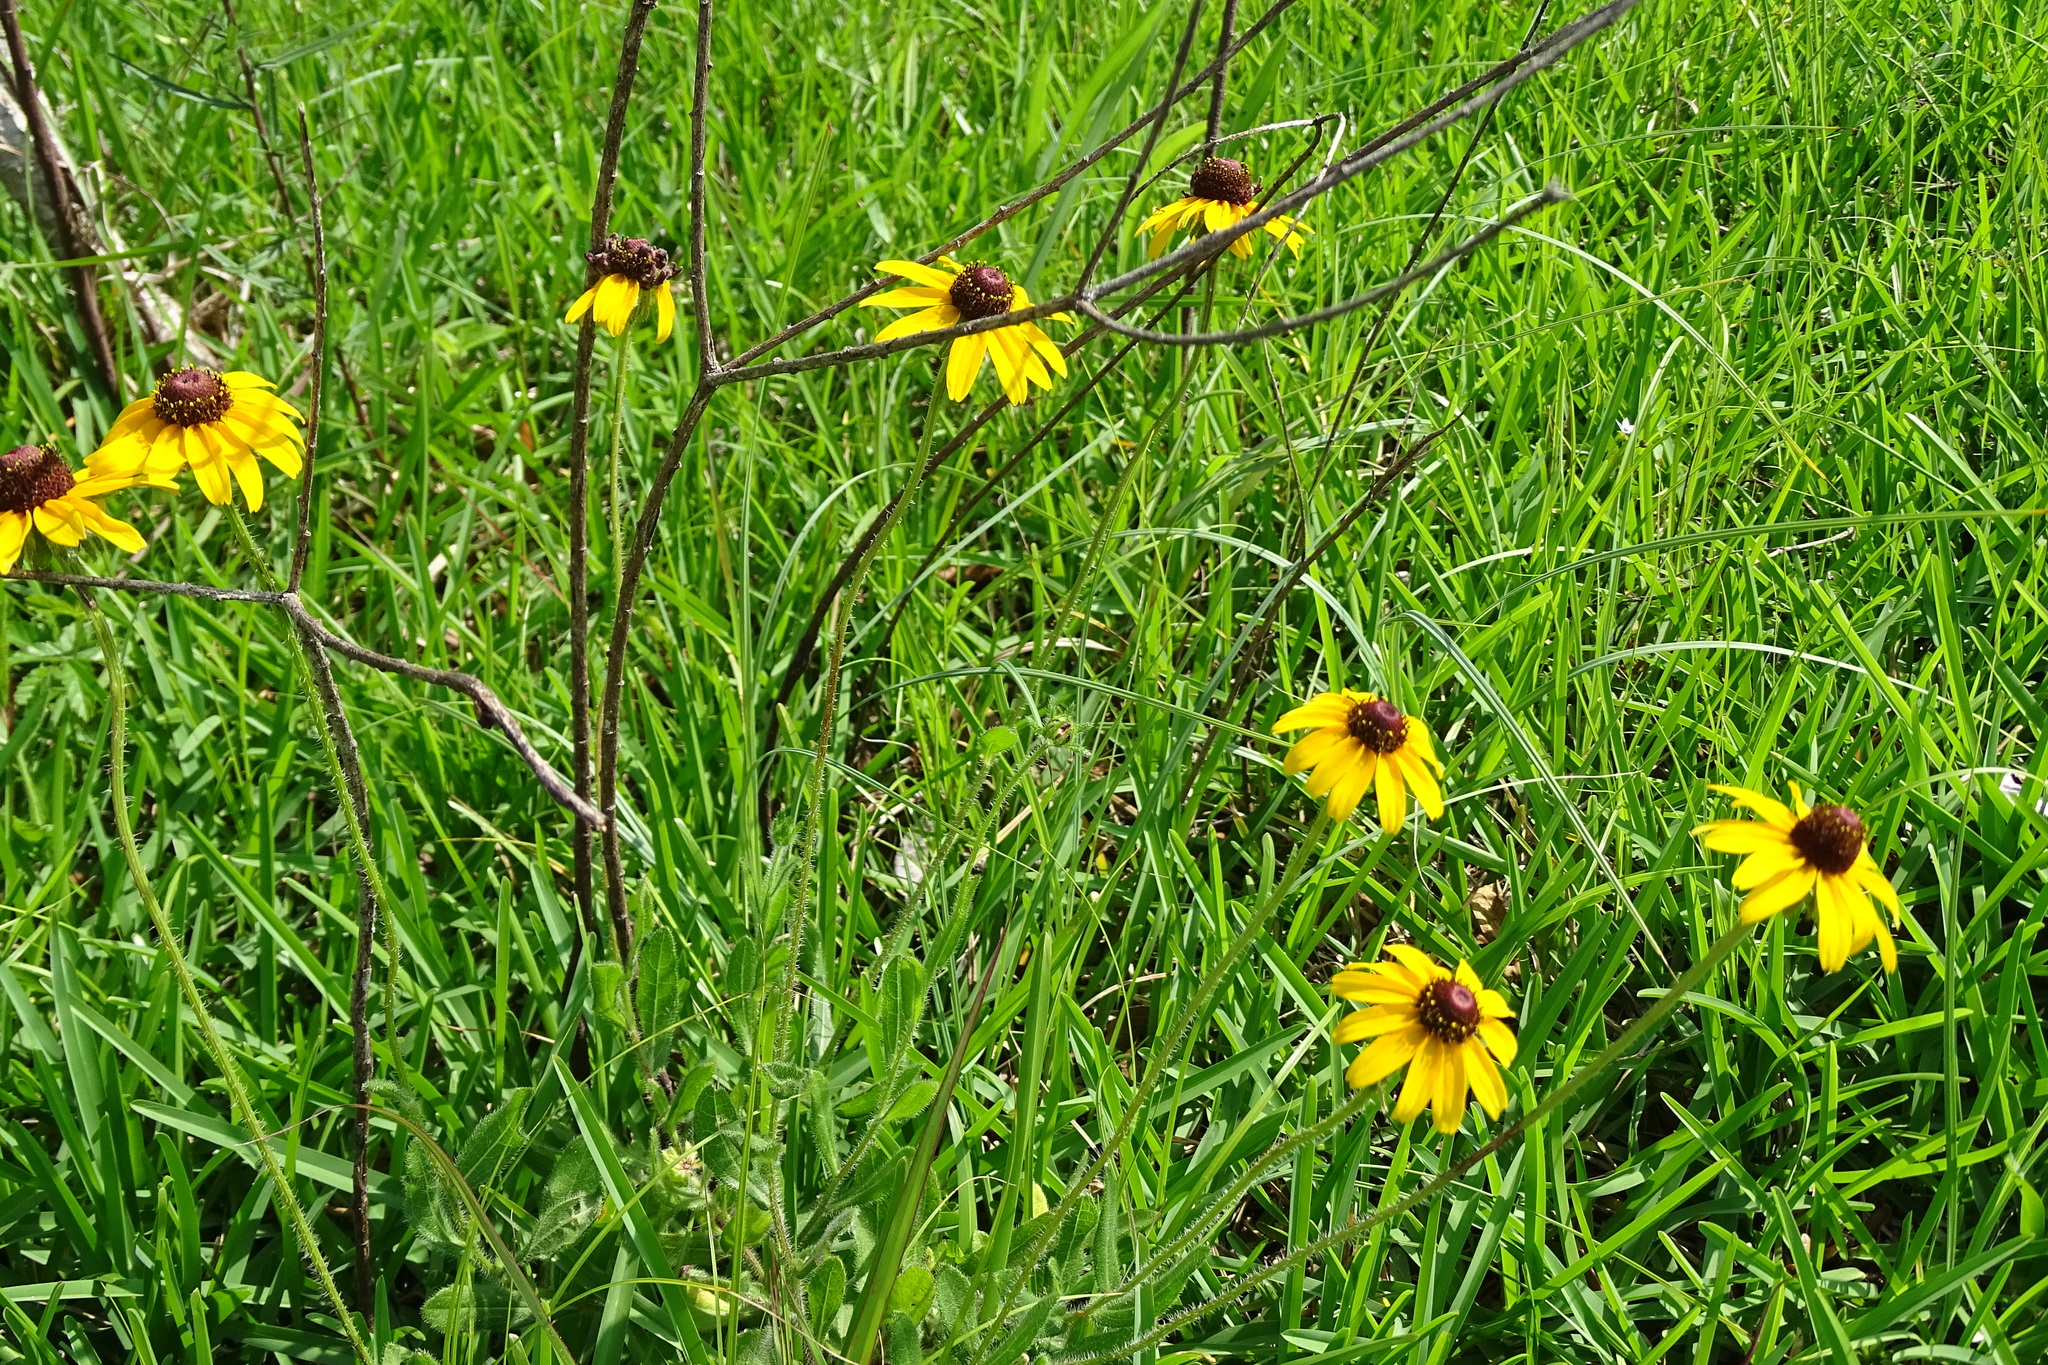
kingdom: Plantae
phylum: Tracheophyta
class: Magnoliopsida
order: Asterales
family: Asteraceae
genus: Rudbeckia
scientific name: Rudbeckia hirta
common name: Black-eyed-susan
